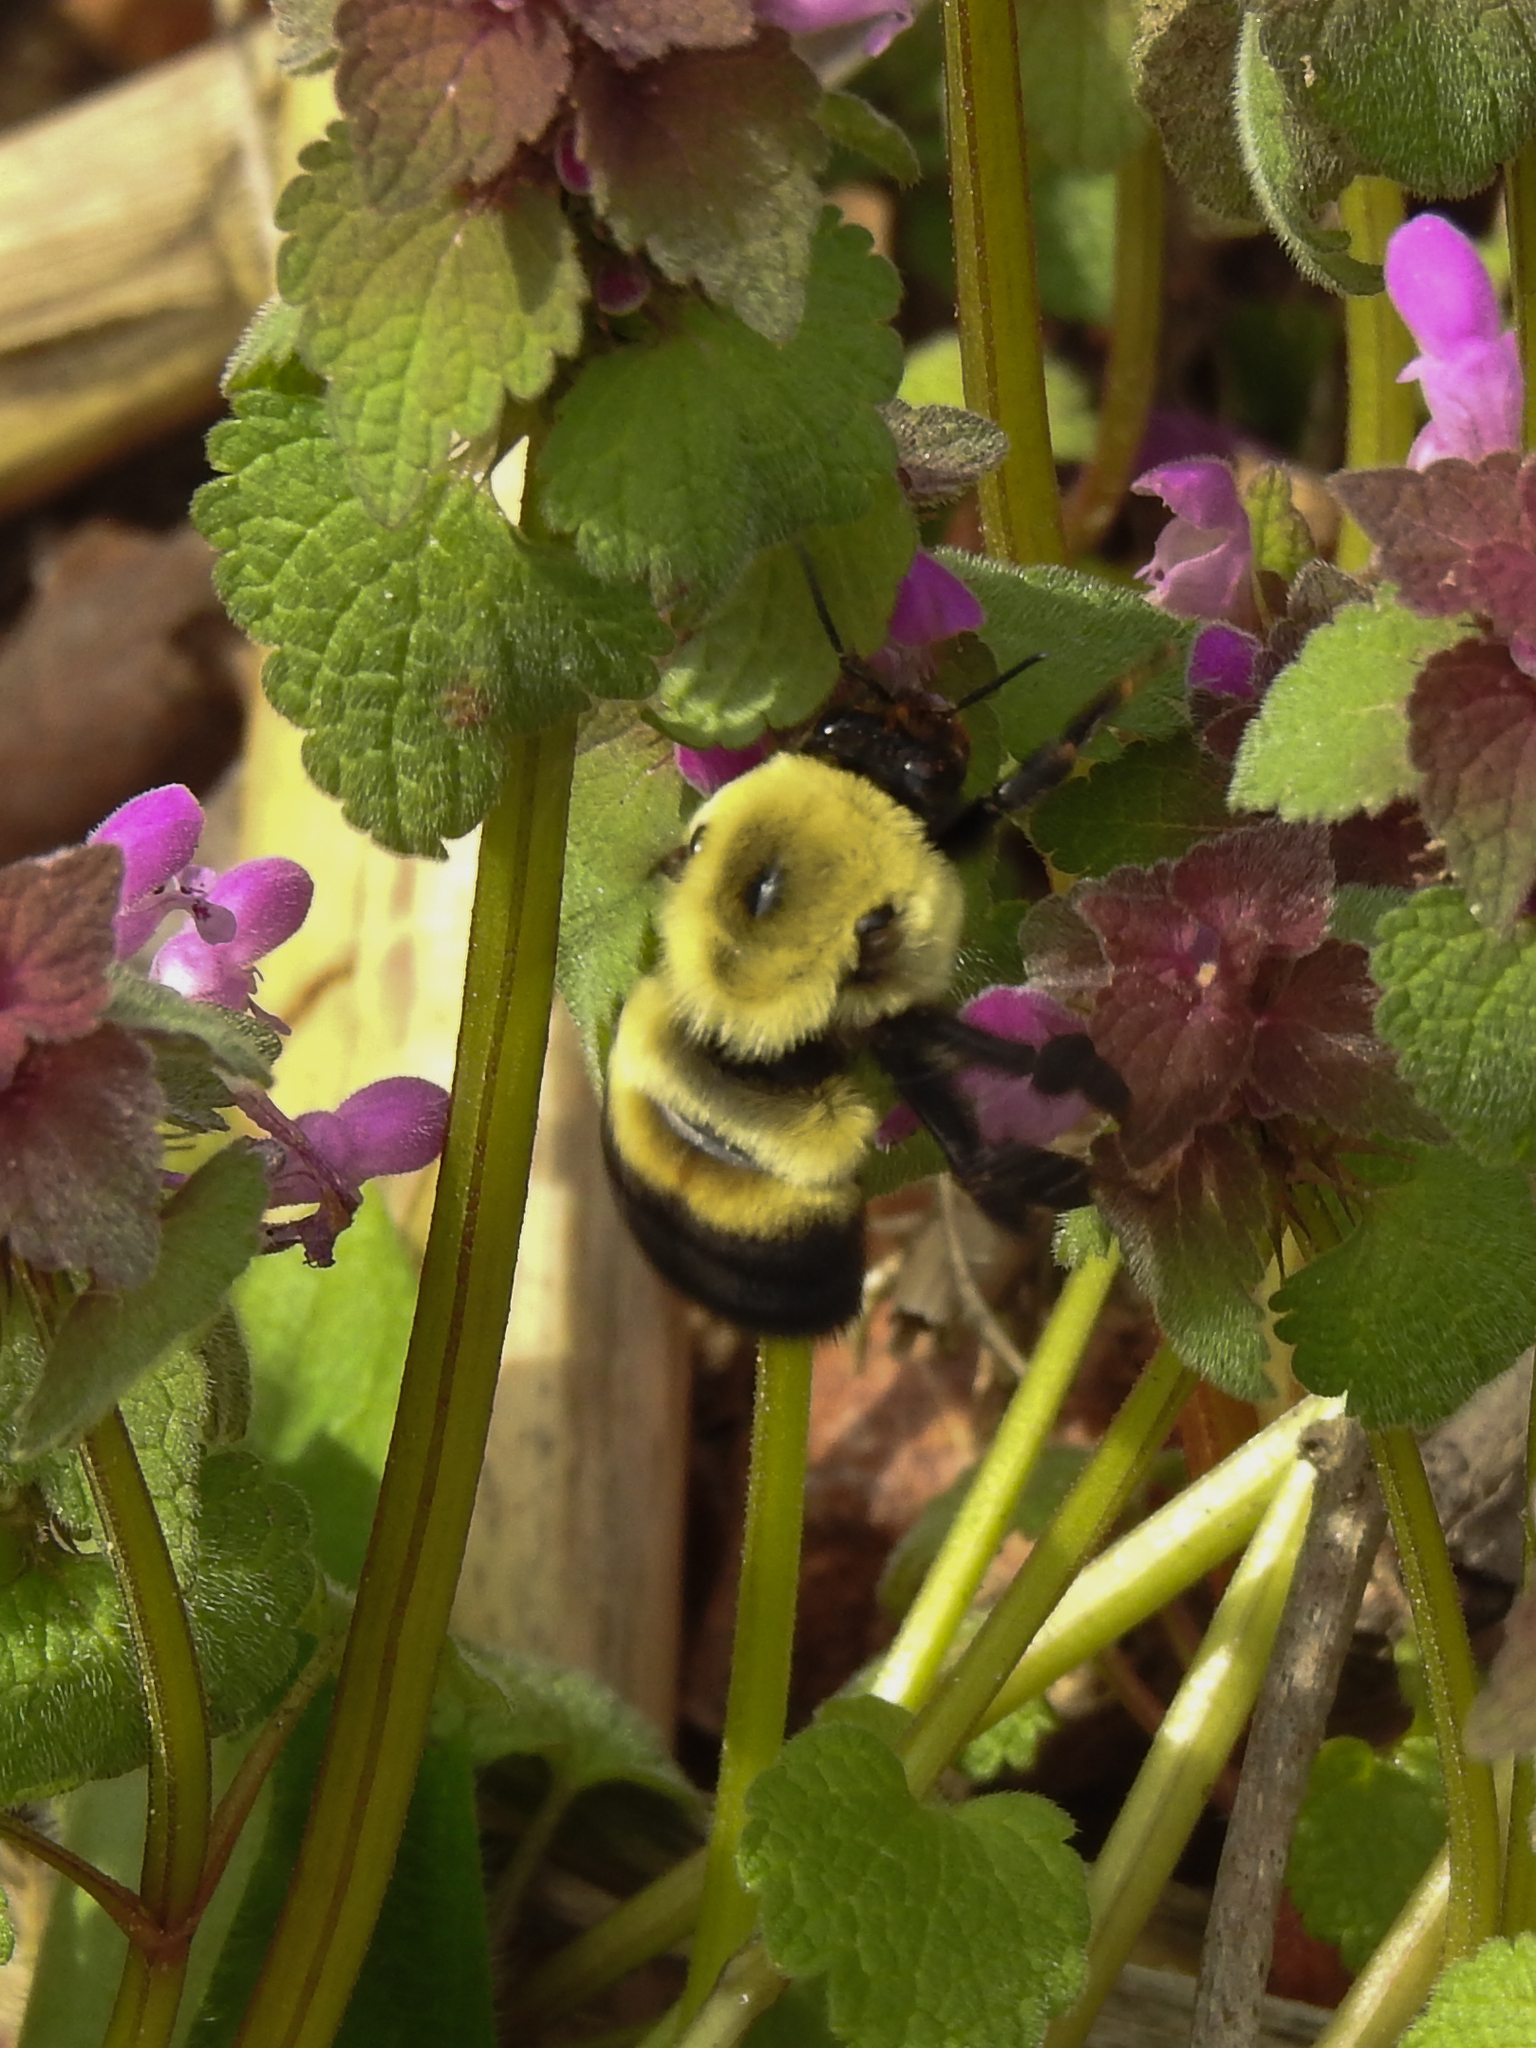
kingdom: Animalia
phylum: Arthropoda
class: Insecta
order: Hymenoptera
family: Apidae
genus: Bombus
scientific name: Bombus griseocollis
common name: Brown-belted bumble bee
